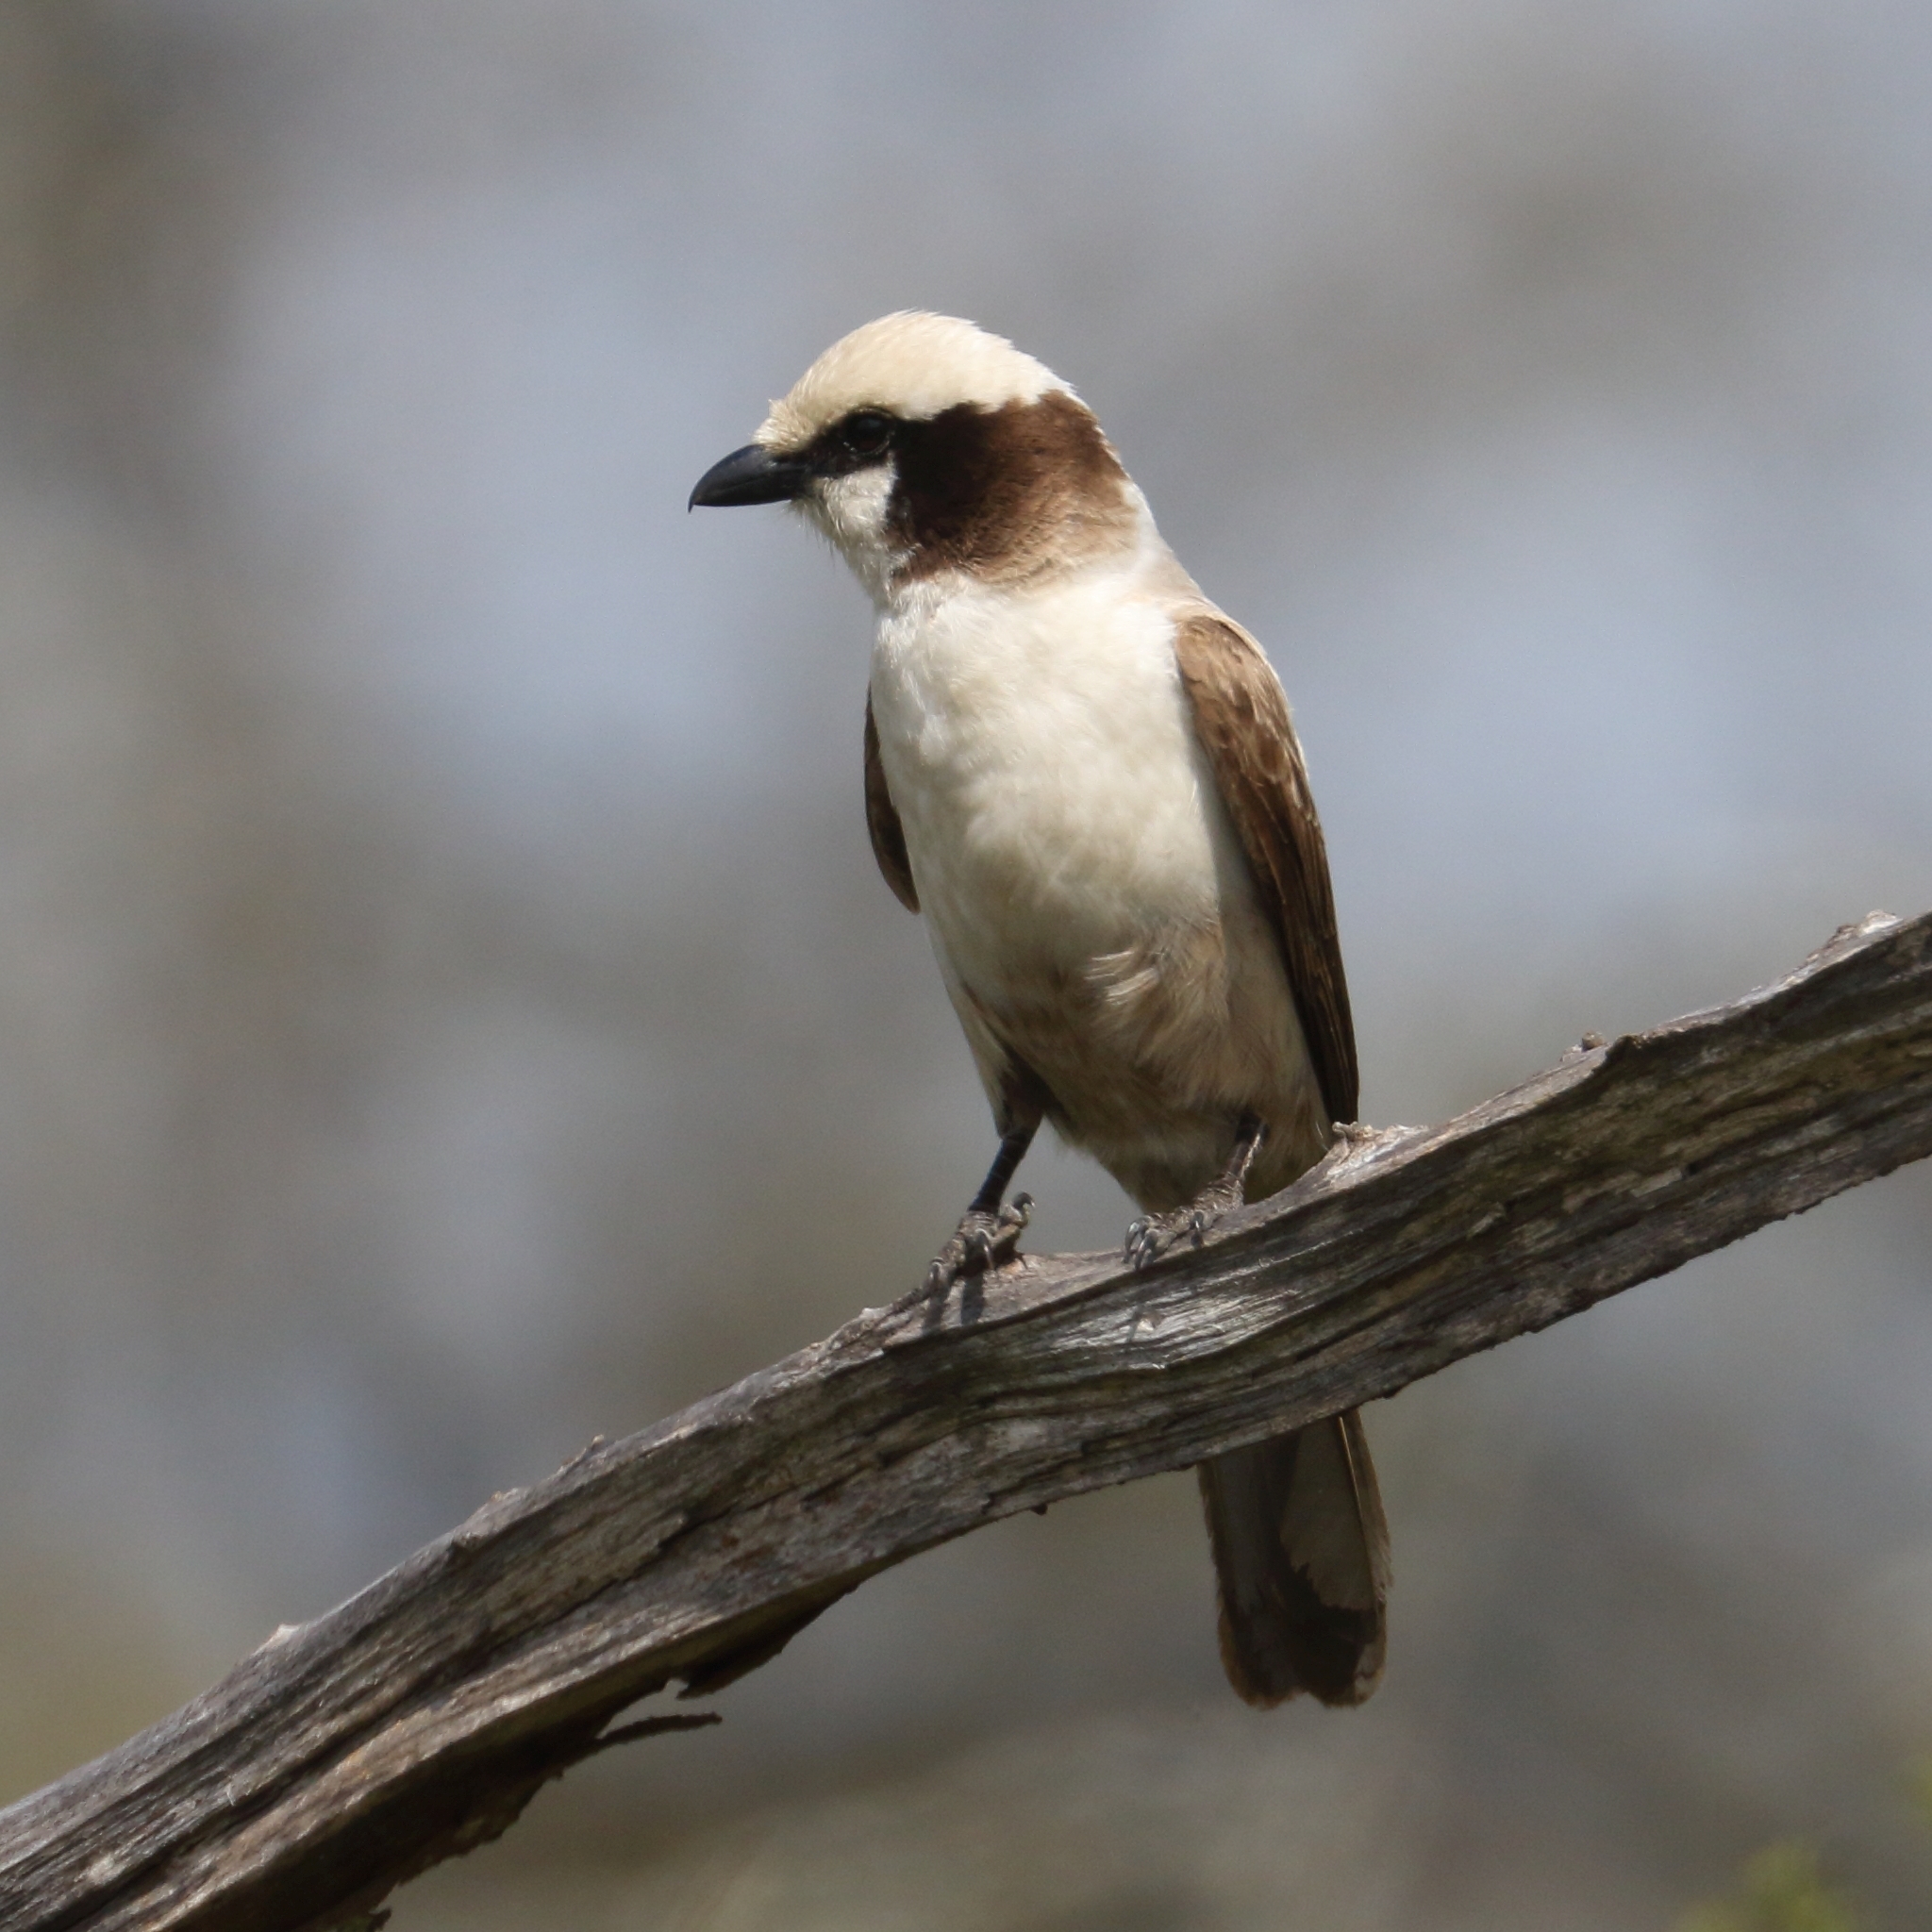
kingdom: Animalia
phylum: Chordata
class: Aves
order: Passeriformes
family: Laniidae
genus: Eurocephalus
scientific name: Eurocephalus anguitimens
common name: Southern white-crowned shrike
